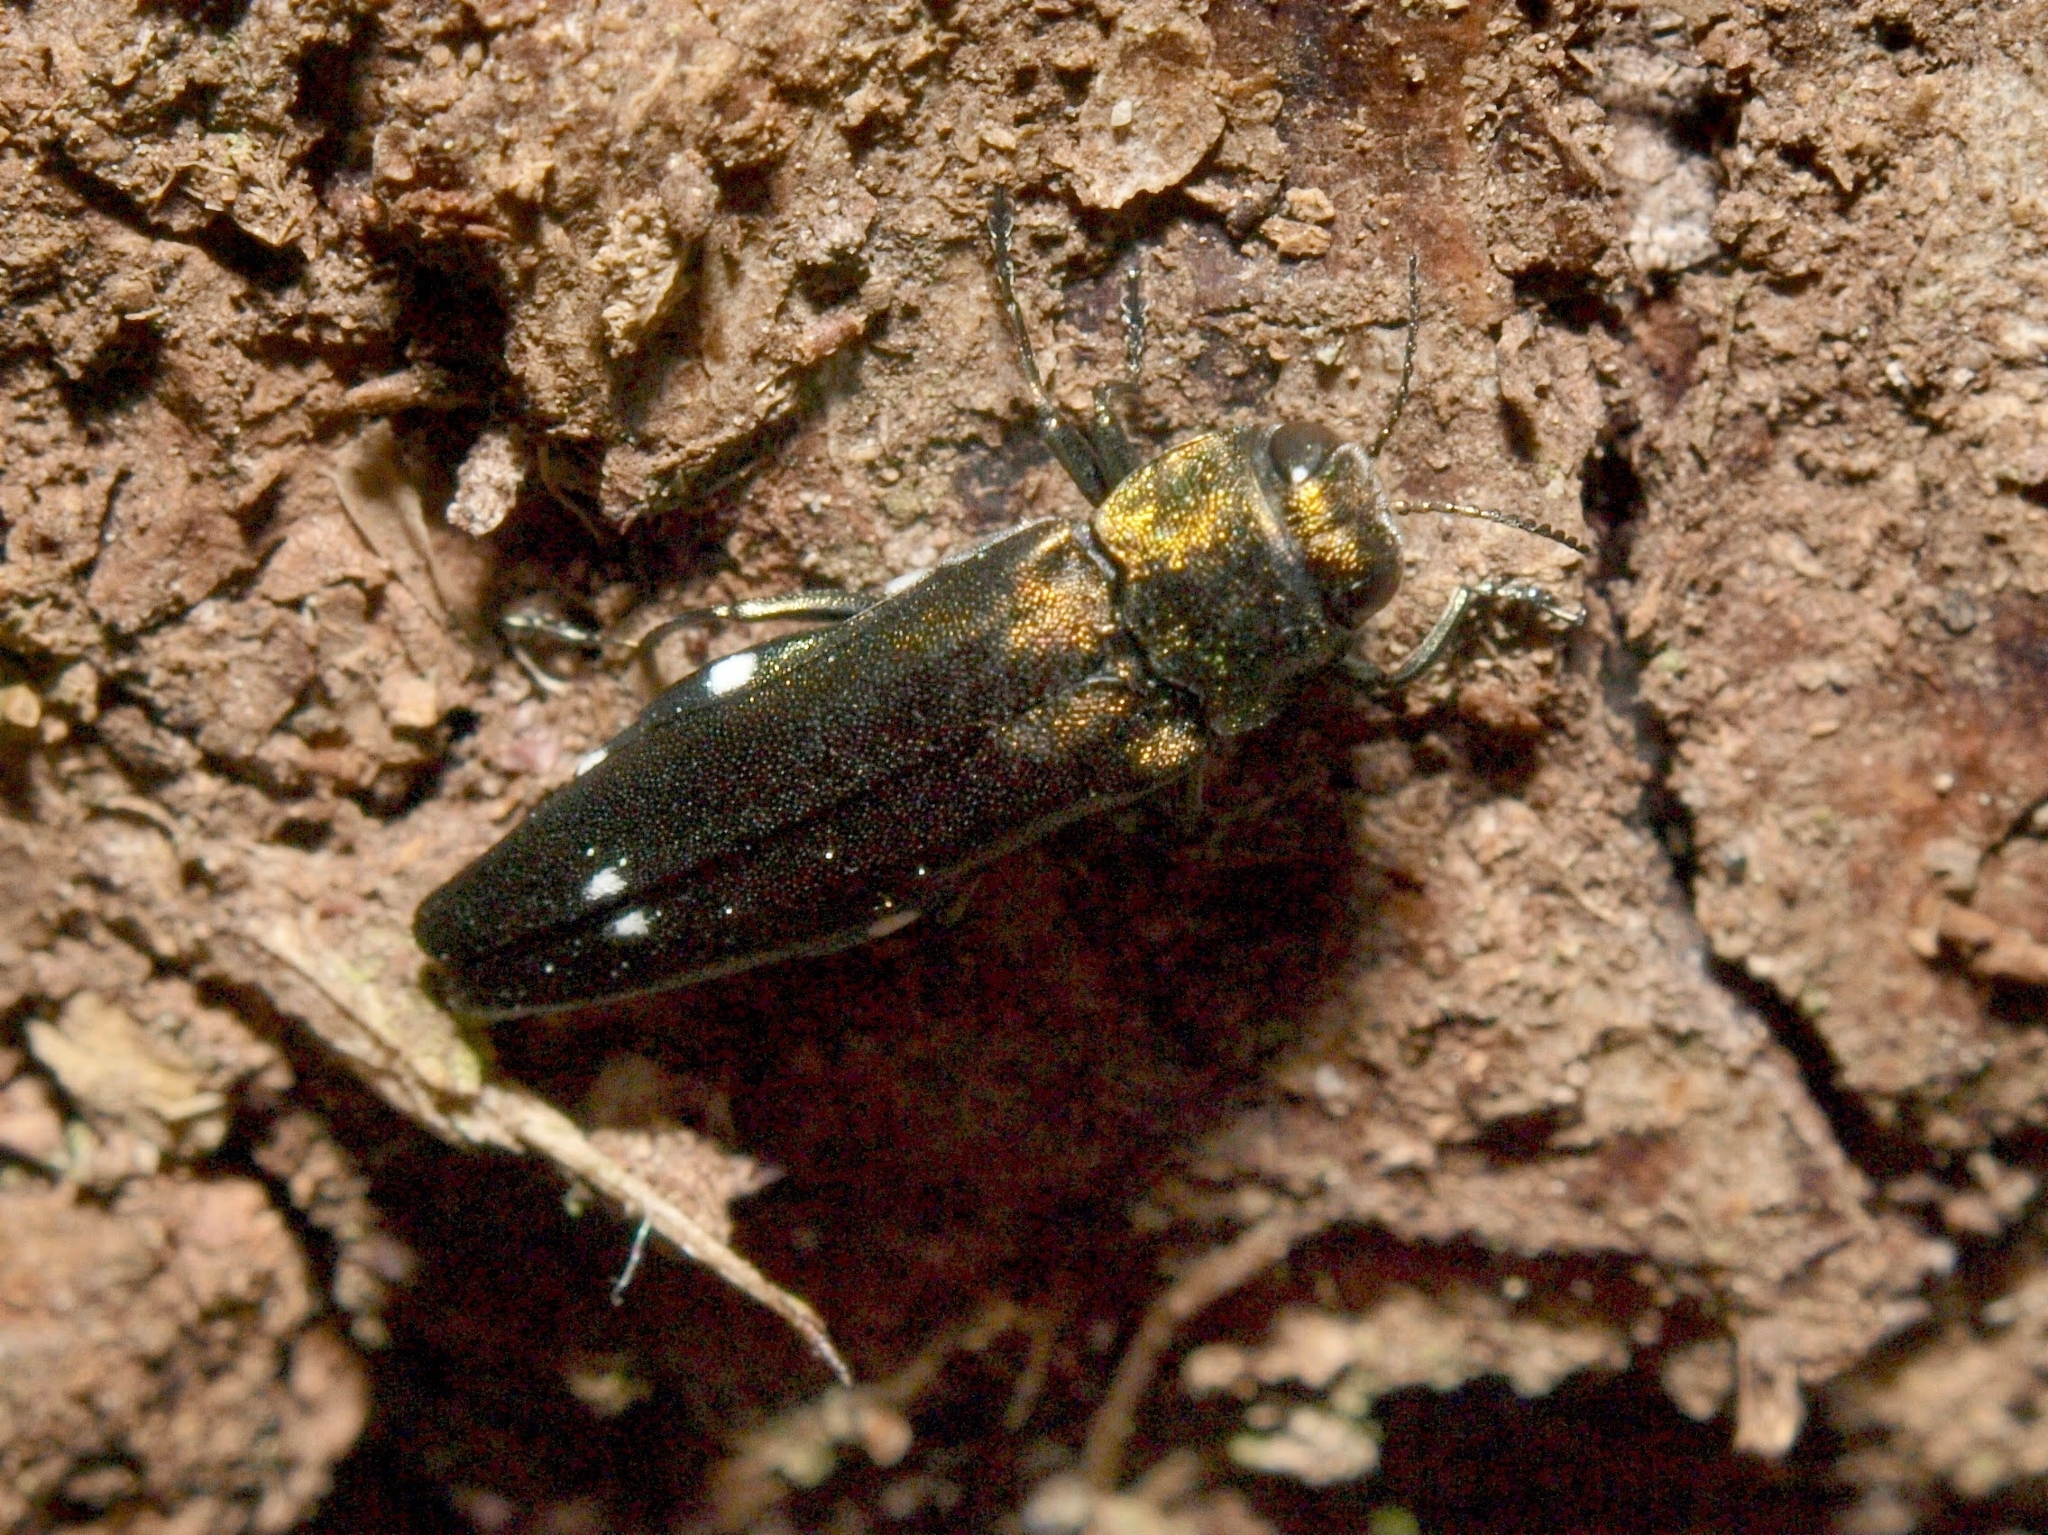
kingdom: Animalia
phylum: Arthropoda
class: Insecta
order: Coleoptera
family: Buprestidae
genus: Agrilus
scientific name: Agrilus biguttatus
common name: Oak jewel beetle
